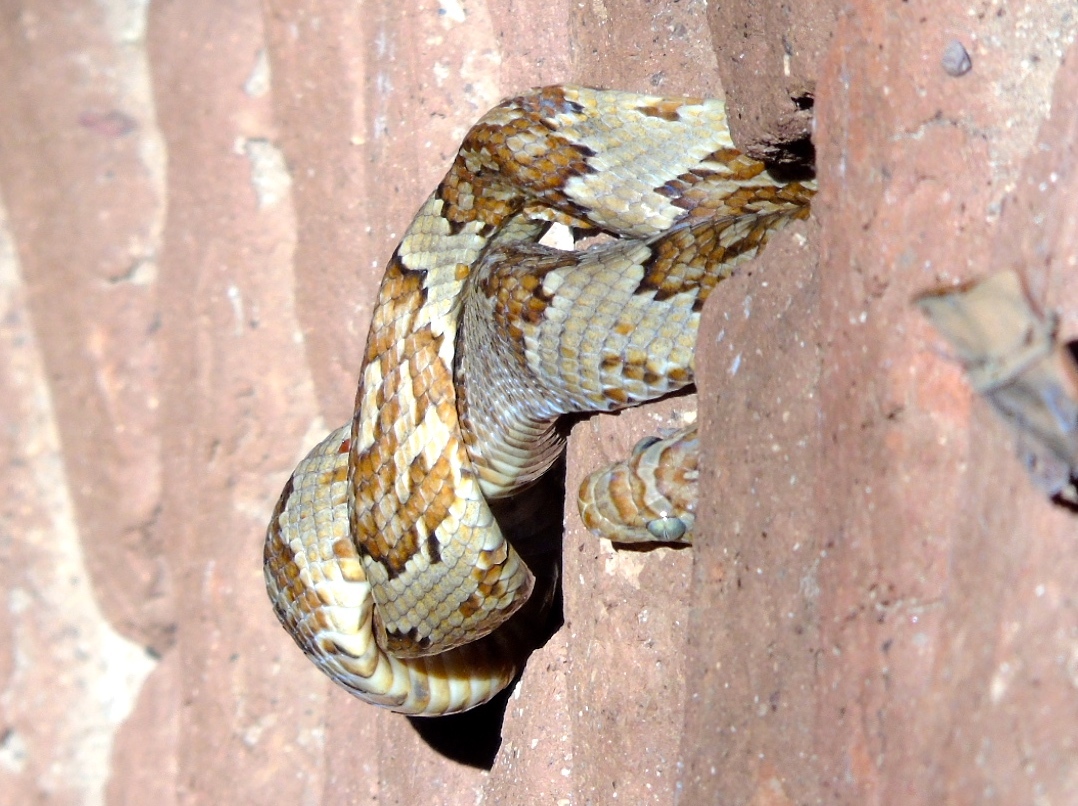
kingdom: Animalia
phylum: Chordata
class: Squamata
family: Colubridae
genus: Trimorphodon
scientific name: Trimorphodon paucimaculatus
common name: Sinaloan lyresnake
